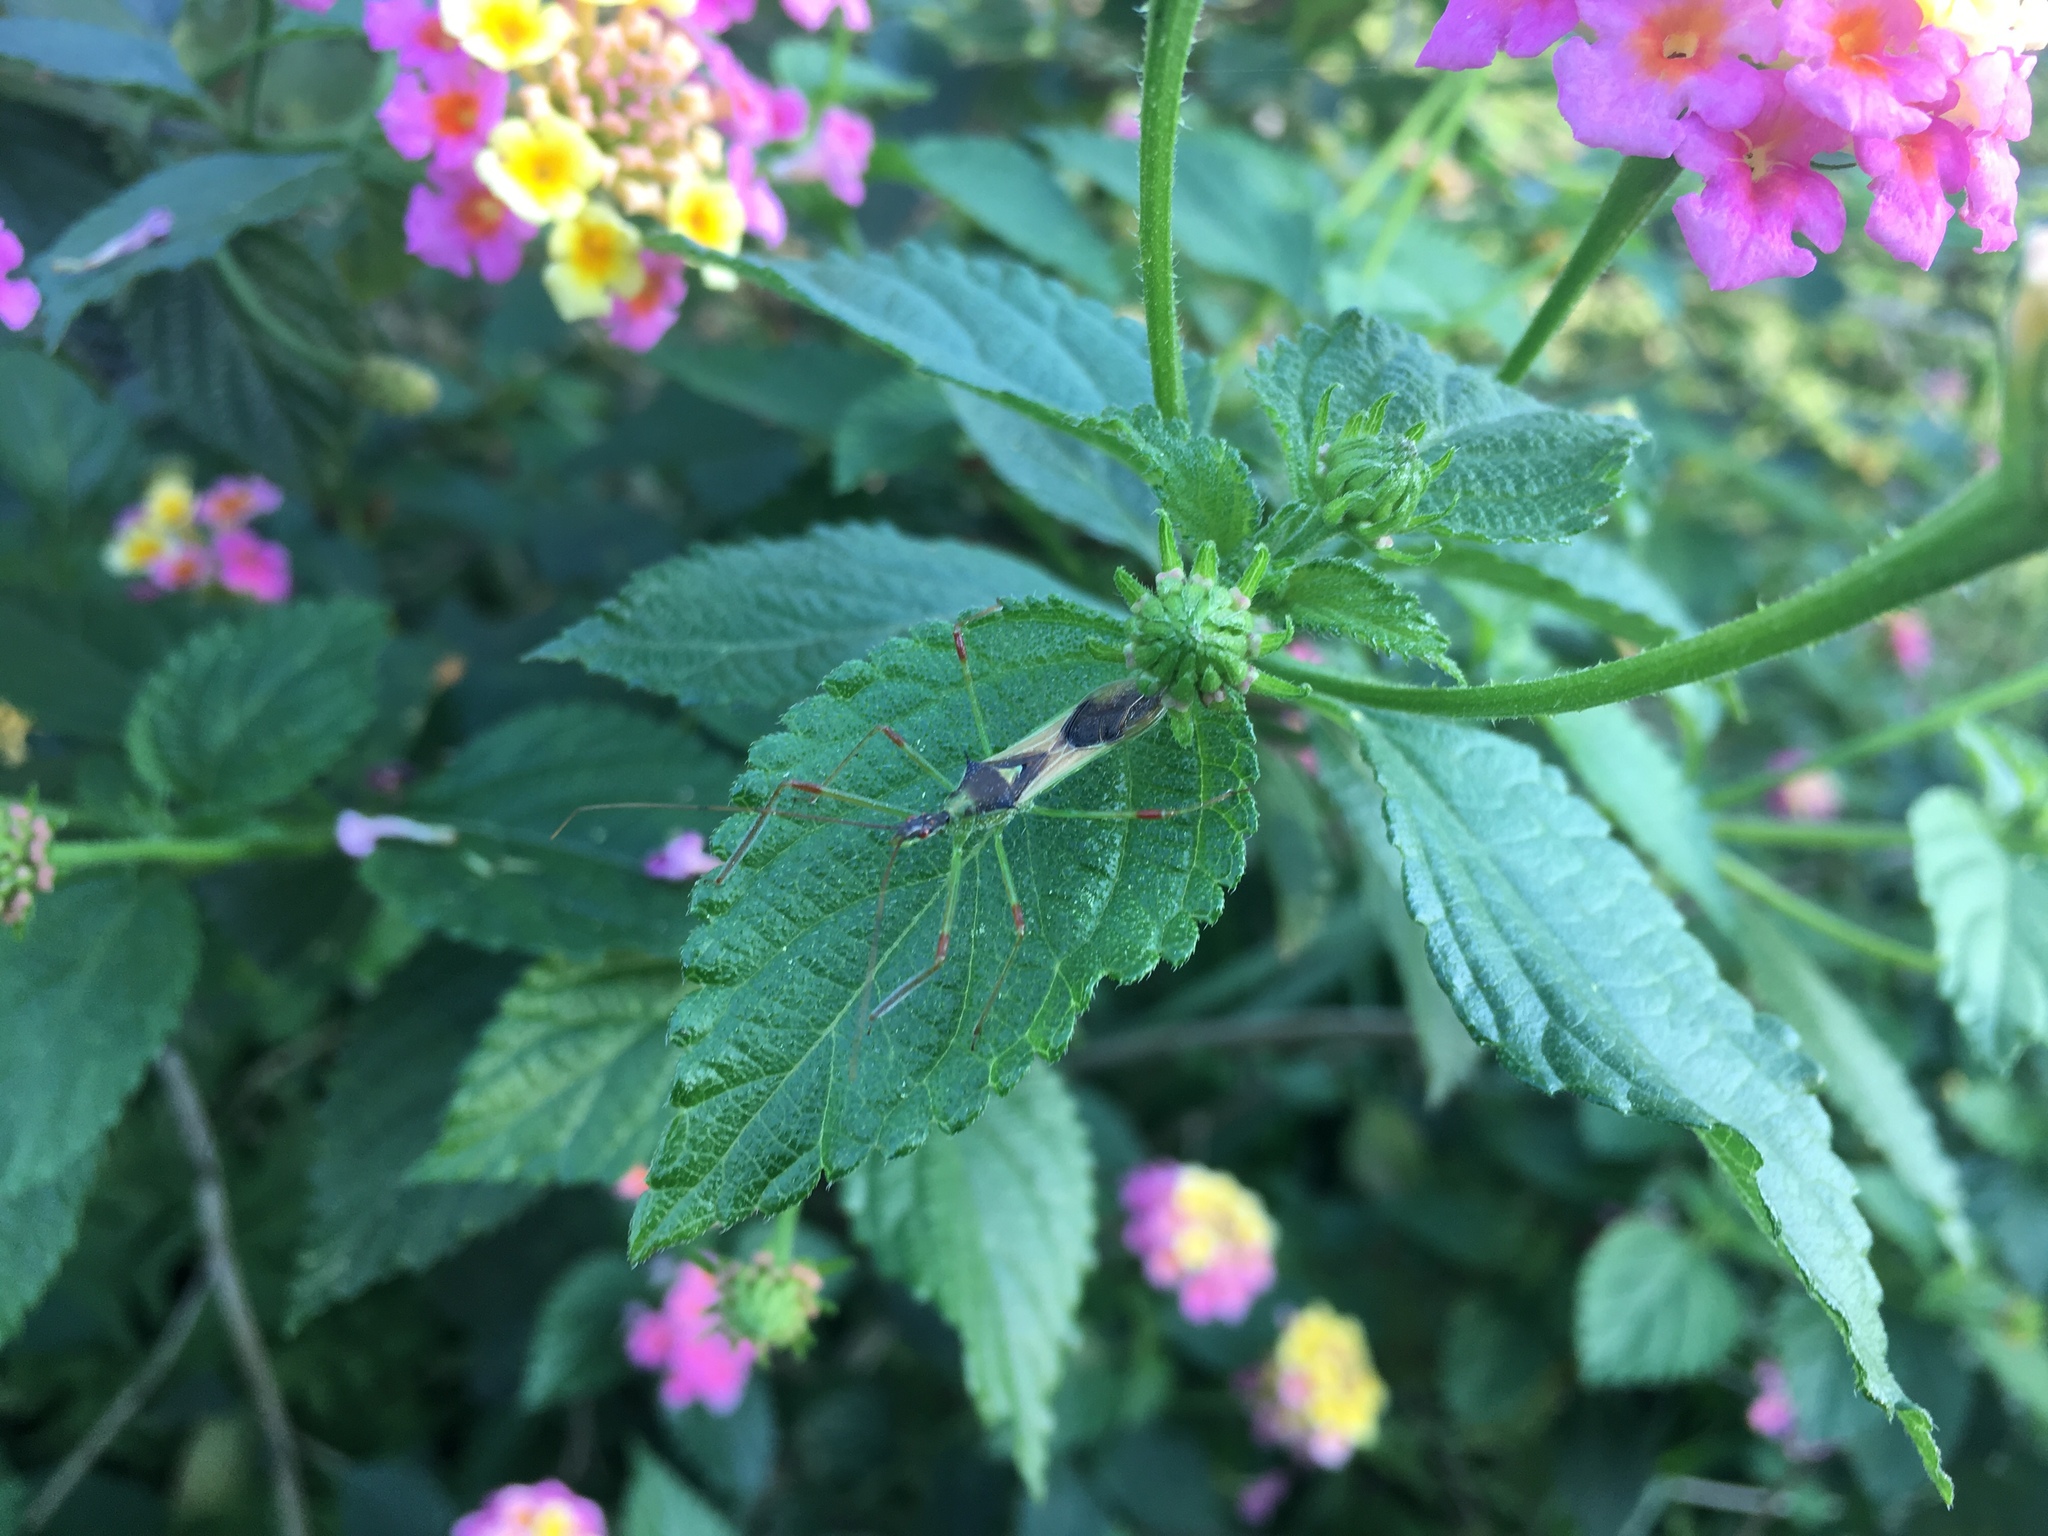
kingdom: Animalia
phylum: Arthropoda
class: Insecta
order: Hemiptera
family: Reduviidae
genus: Zelus
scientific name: Zelus luridus
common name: Pale green assassin bug
